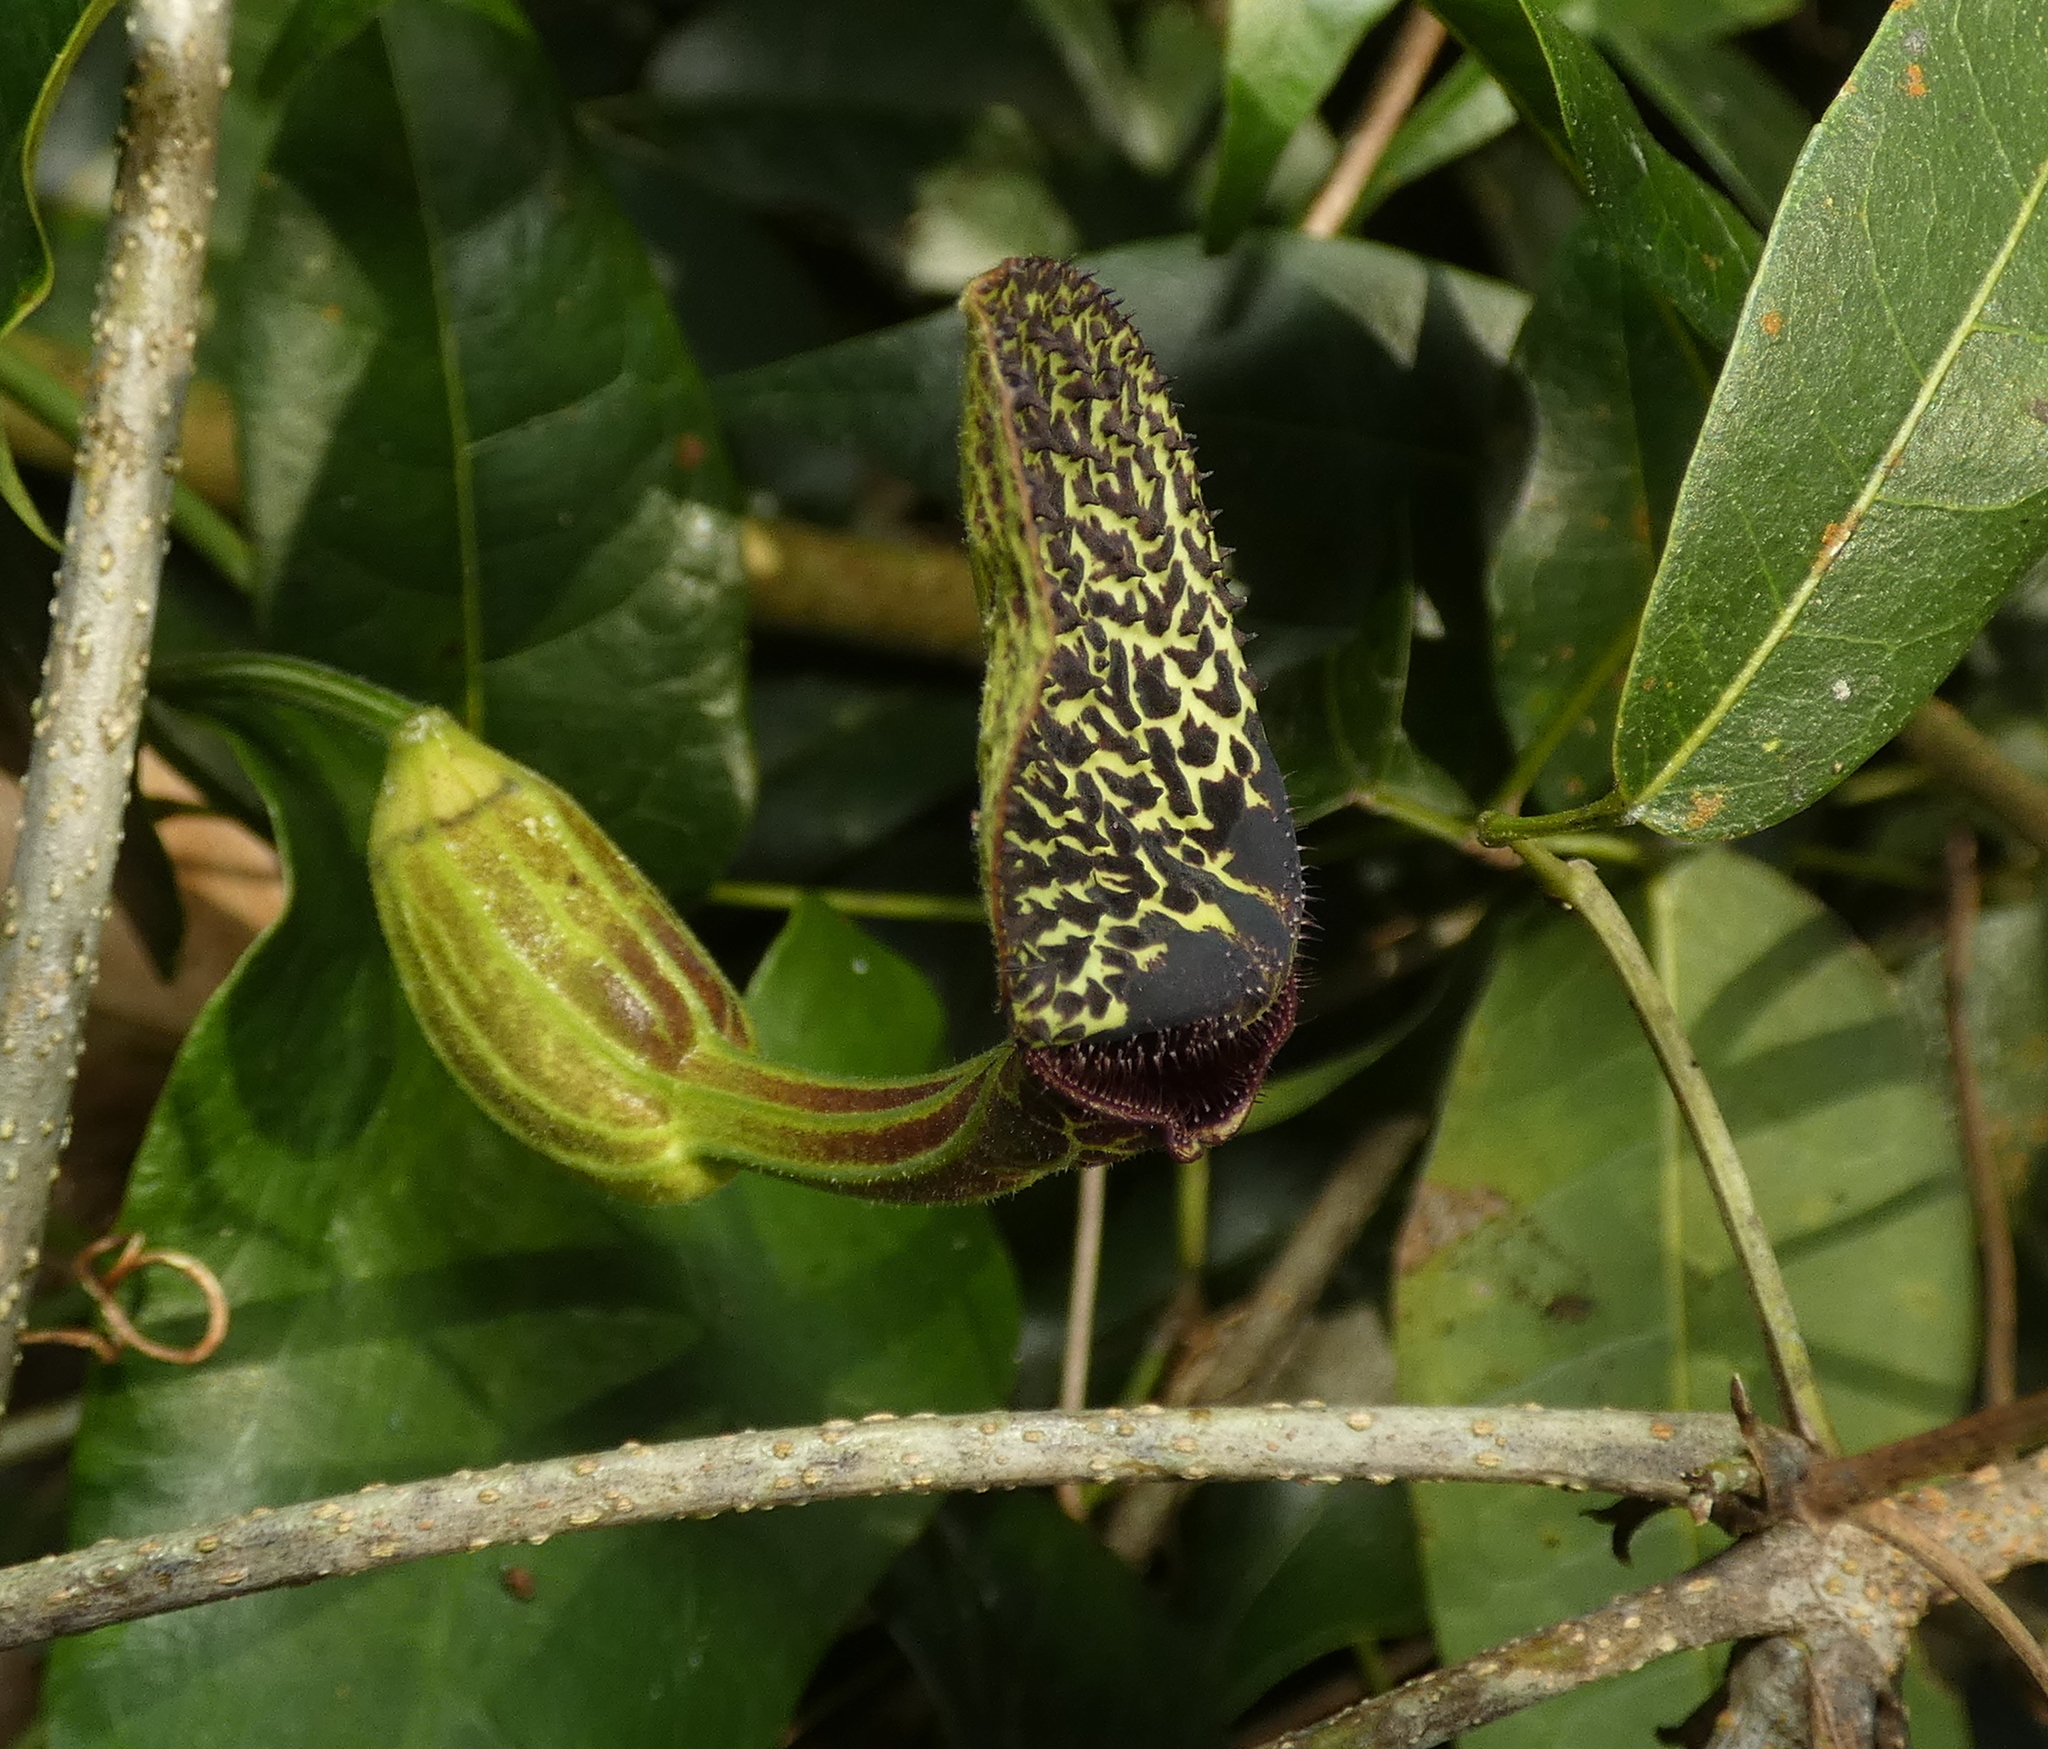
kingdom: Plantae
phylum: Tracheophyta
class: Magnoliopsida
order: Piperales
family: Aristolochiaceae
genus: Aristolochia
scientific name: Aristolochia papillaris
